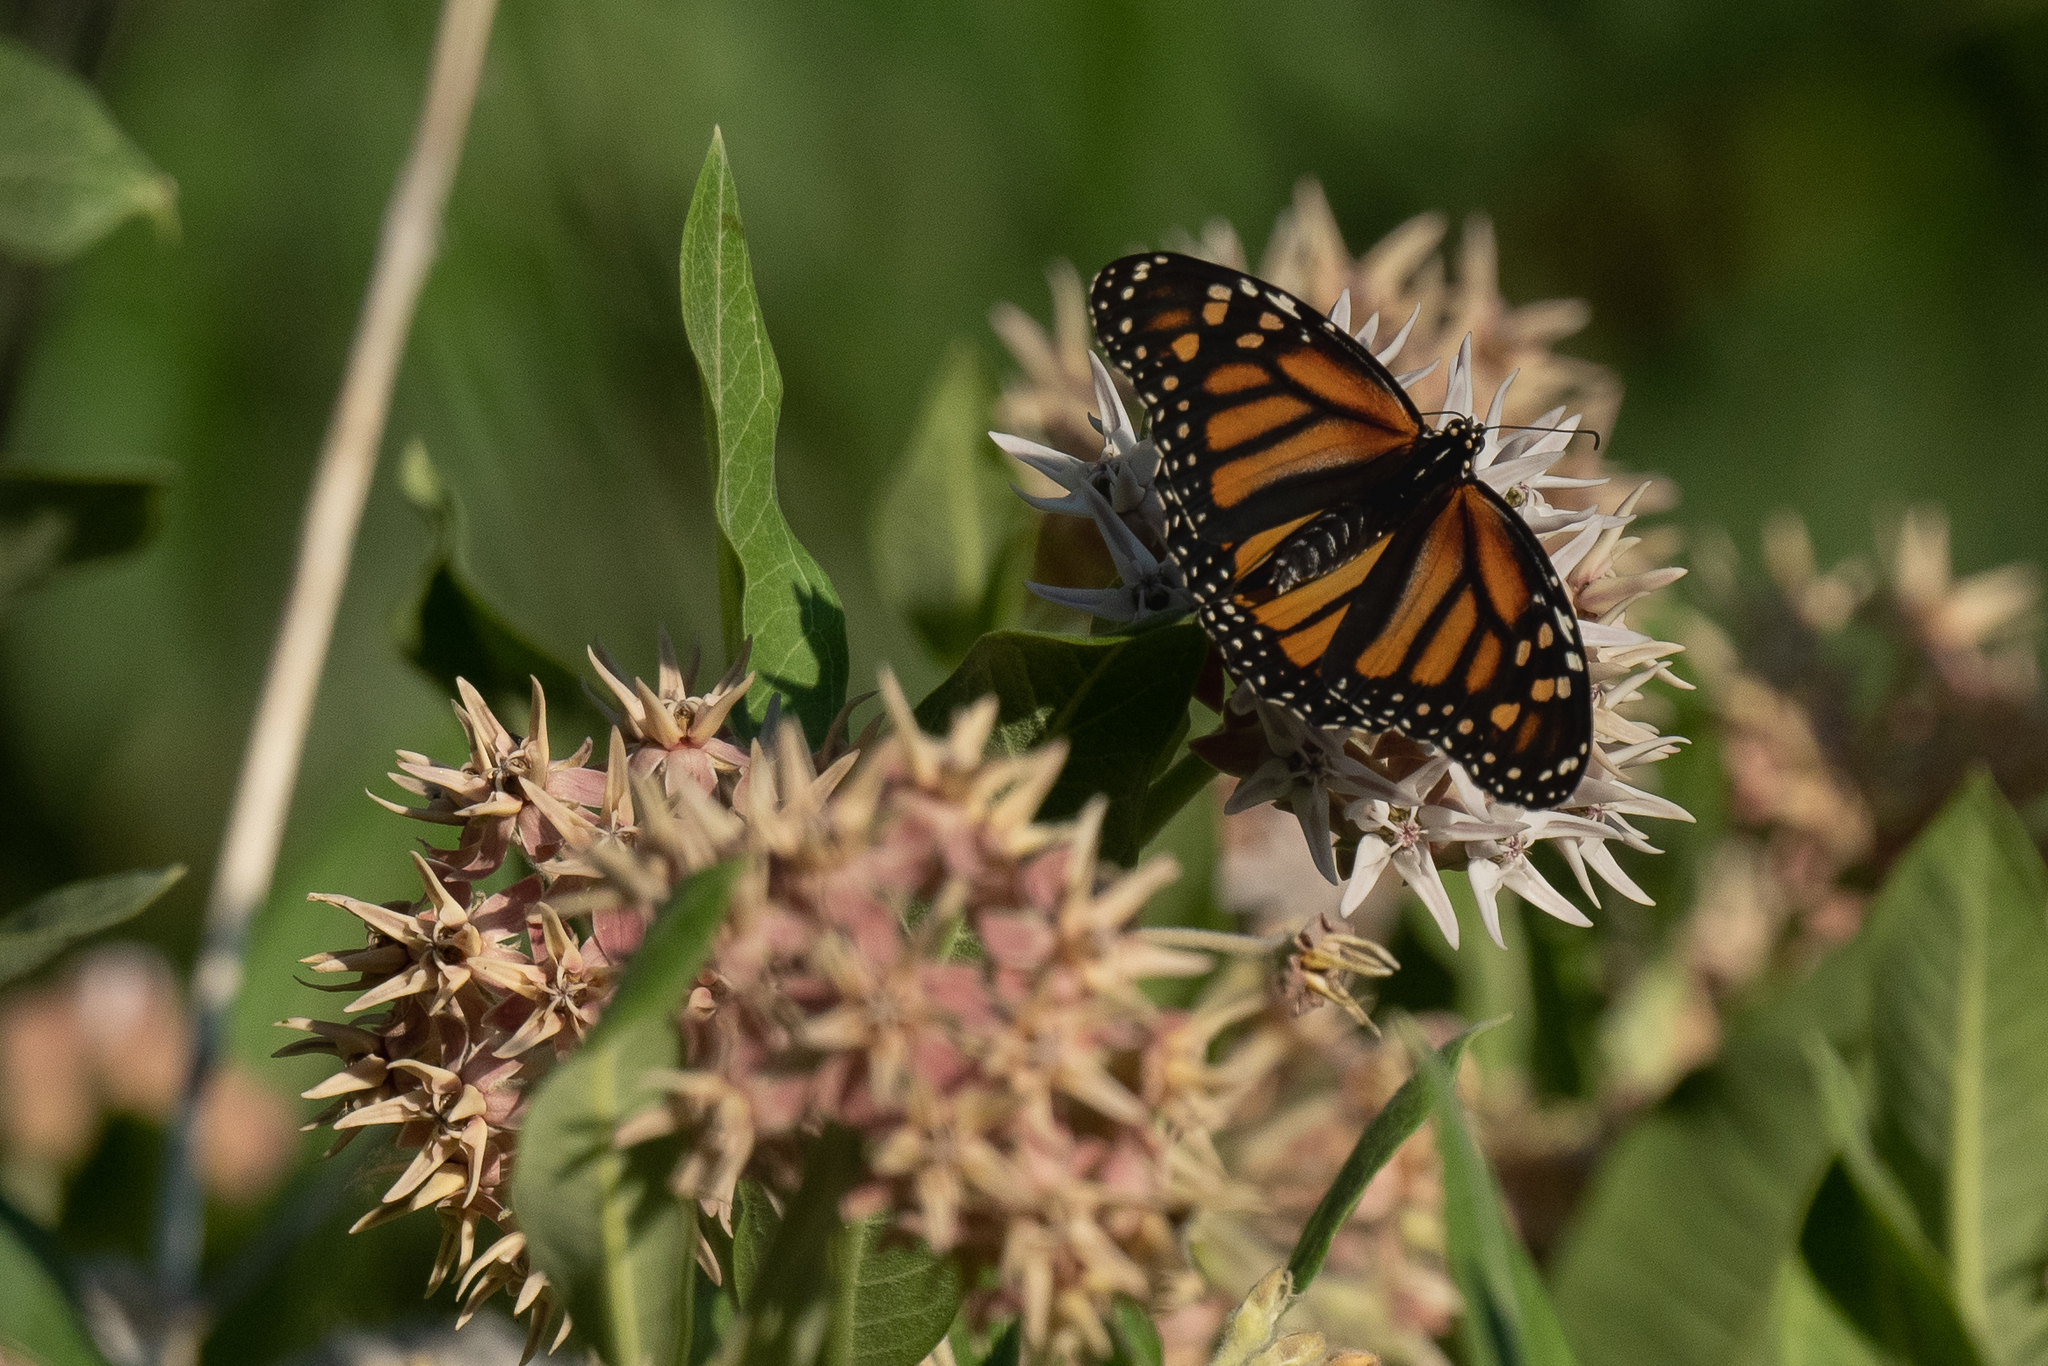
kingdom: Animalia
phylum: Arthropoda
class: Insecta
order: Lepidoptera
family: Nymphalidae
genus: Danaus
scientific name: Danaus plexippus
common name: Monarch
